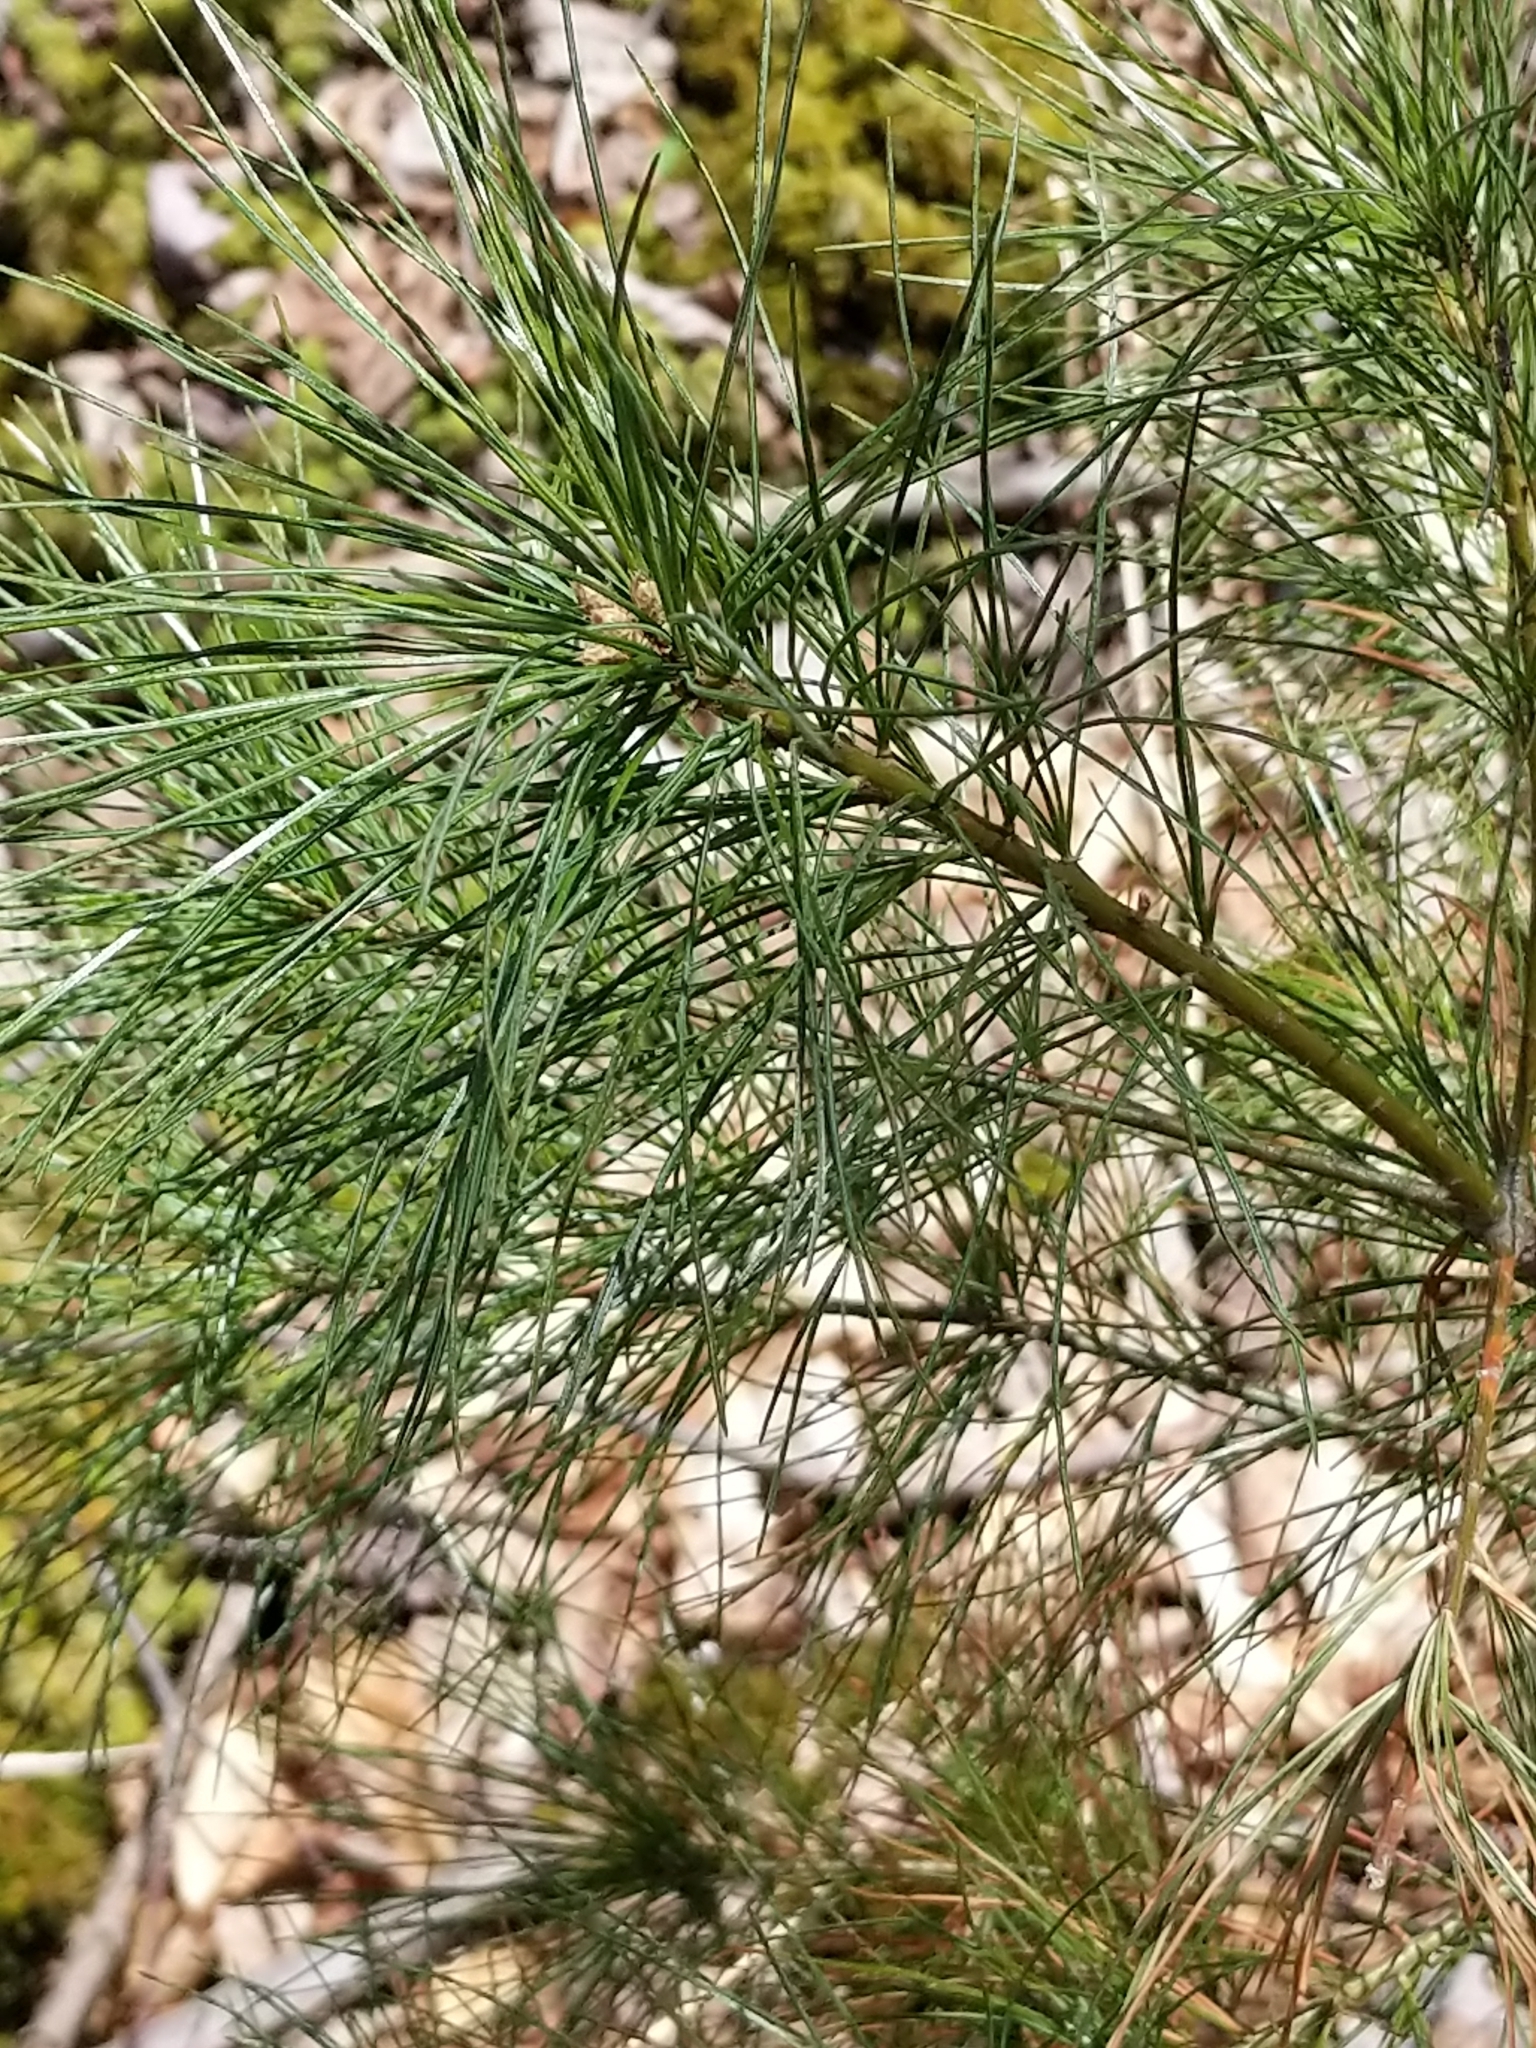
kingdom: Plantae
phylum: Tracheophyta
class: Pinopsida
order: Pinales
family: Pinaceae
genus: Pinus
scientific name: Pinus strobus
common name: Weymouth pine
